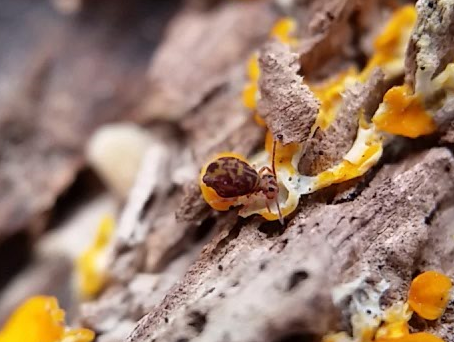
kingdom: Animalia
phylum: Arthropoda
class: Collembola
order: Symphypleona
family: Dicyrtomidae
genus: Dicyrtomina
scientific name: Dicyrtomina minuta
